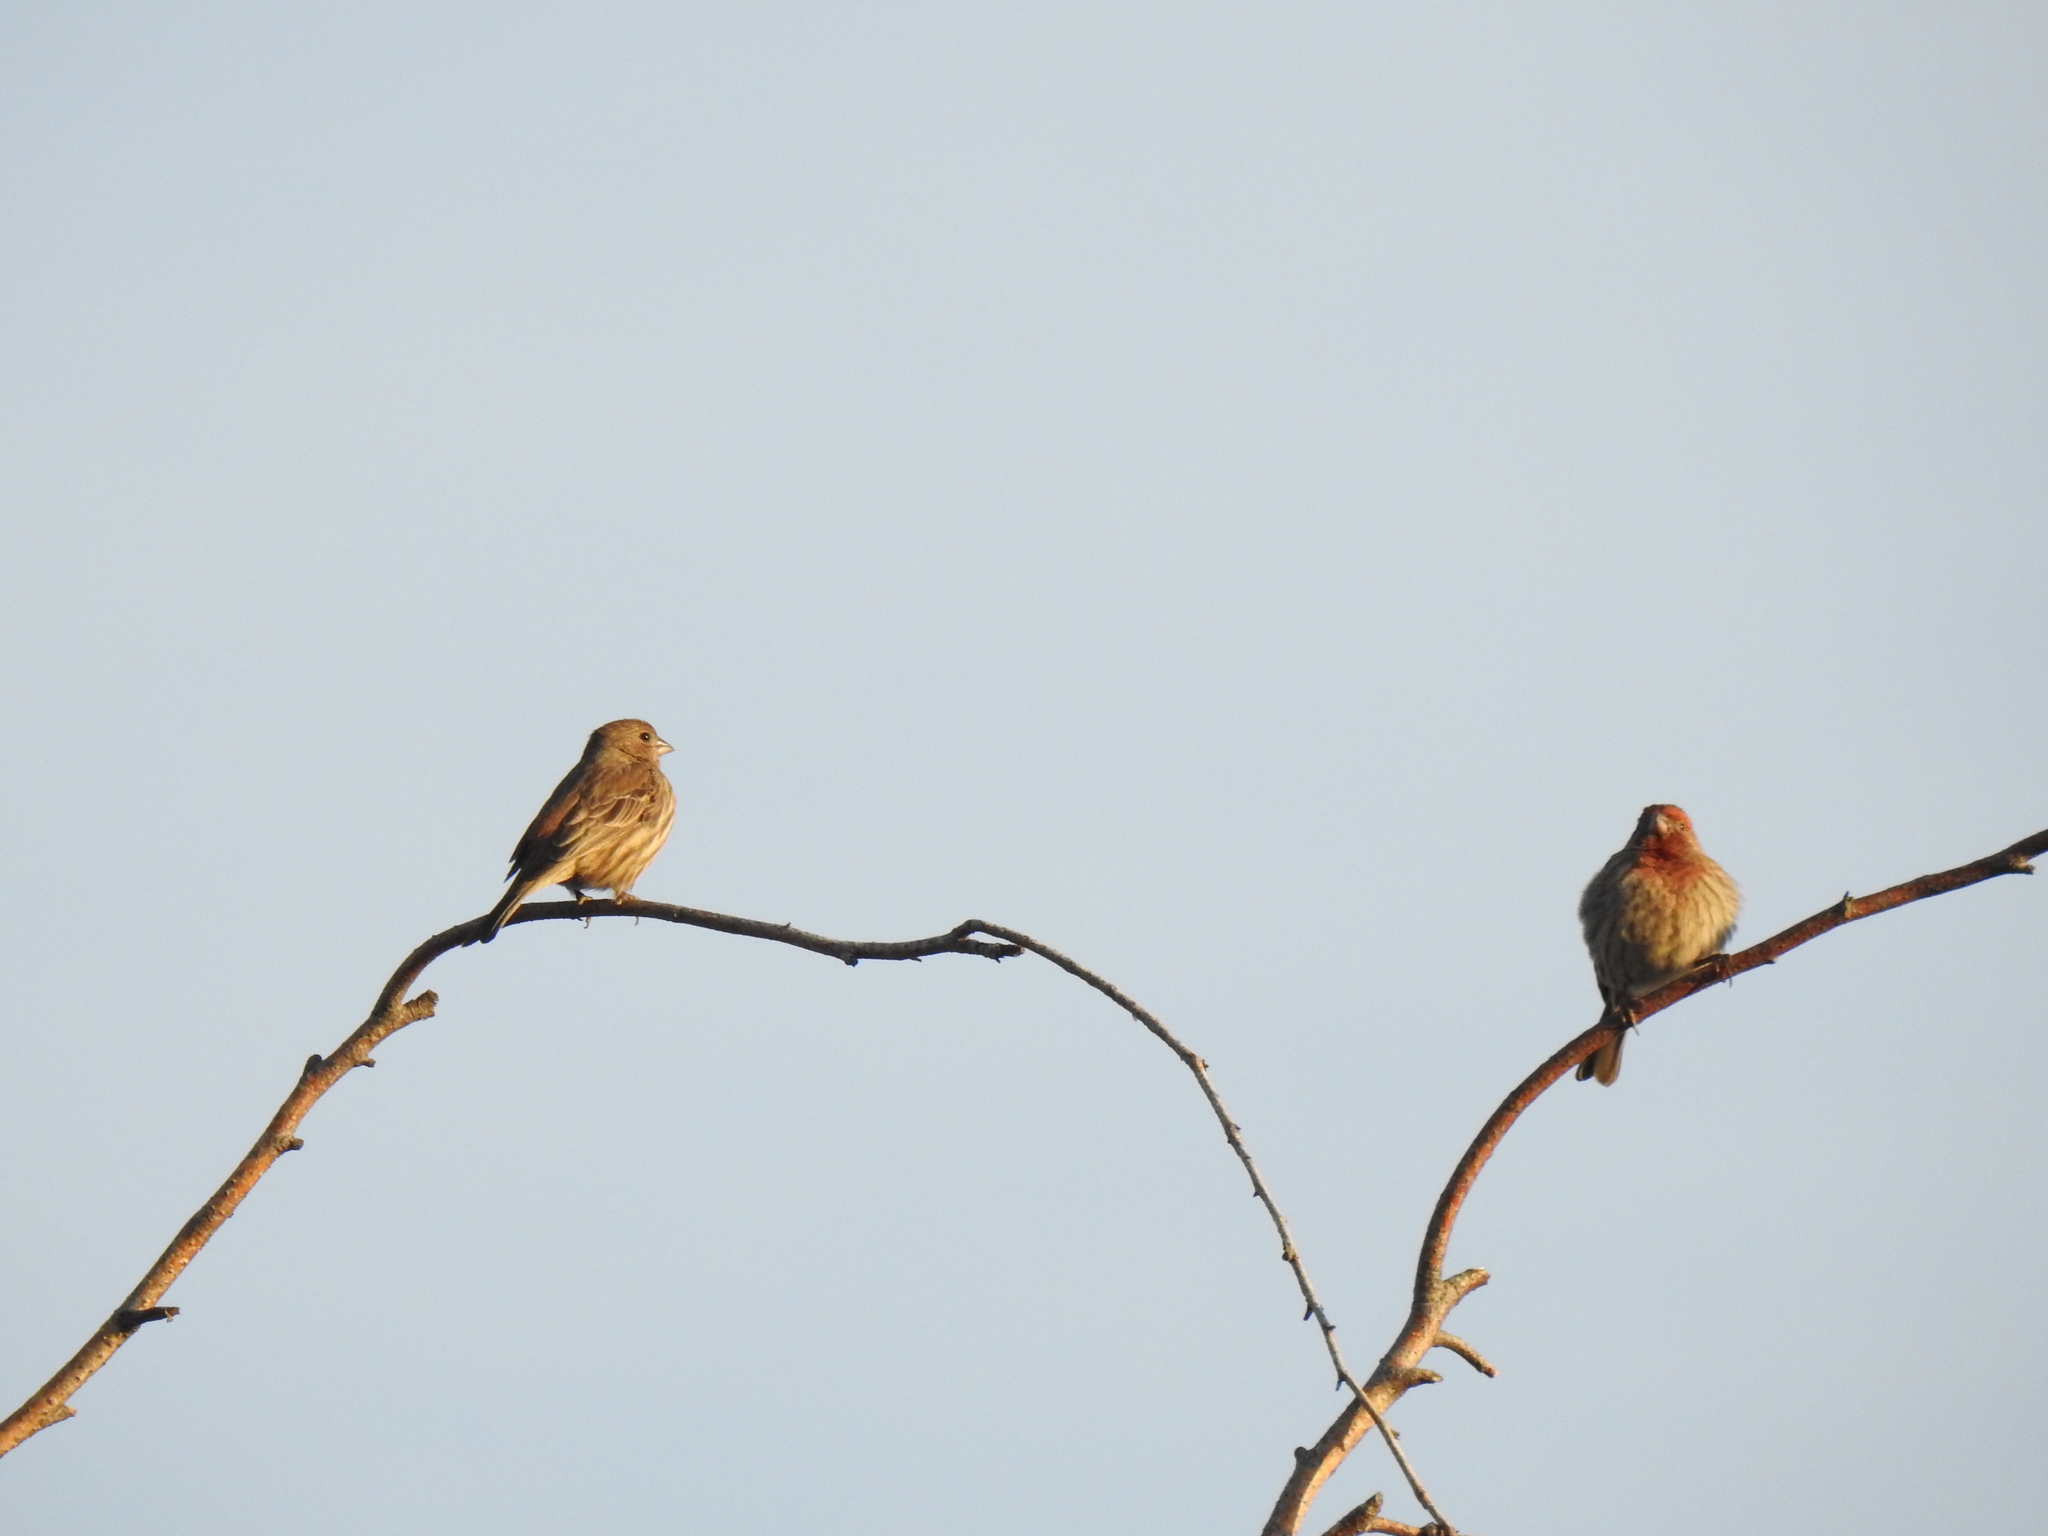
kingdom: Animalia
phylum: Chordata
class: Aves
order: Passeriformes
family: Fringillidae
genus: Haemorhous
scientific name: Haemorhous mexicanus
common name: House finch
